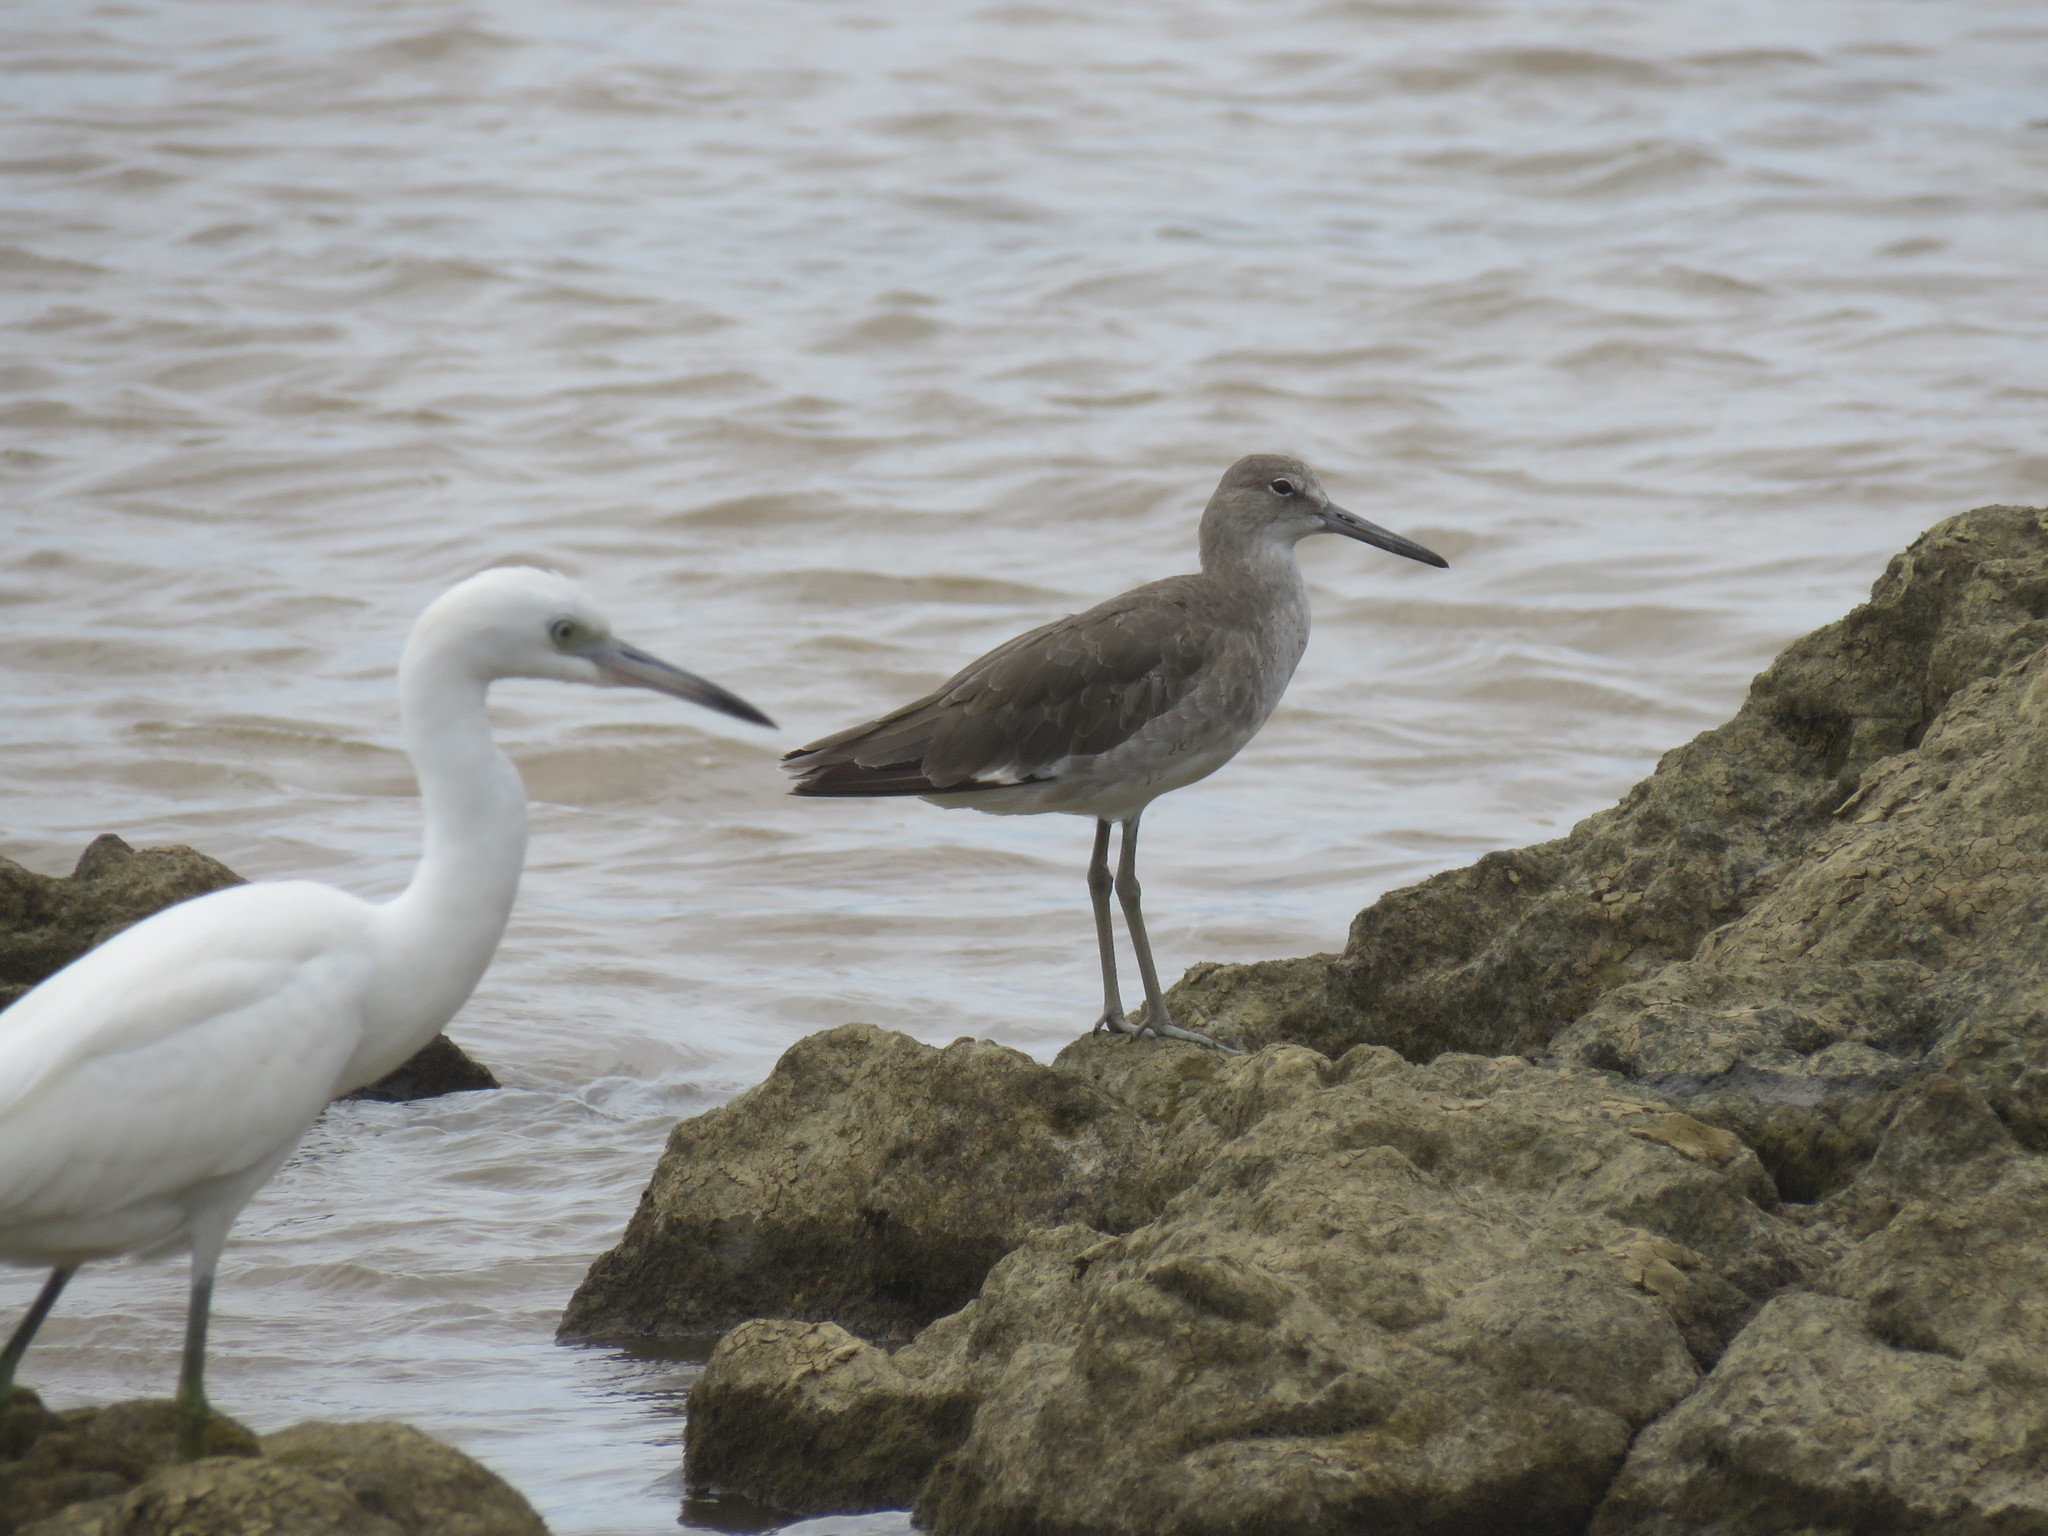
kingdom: Animalia
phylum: Chordata
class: Aves
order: Charadriiformes
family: Scolopacidae
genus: Tringa
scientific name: Tringa semipalmata
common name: Willet
